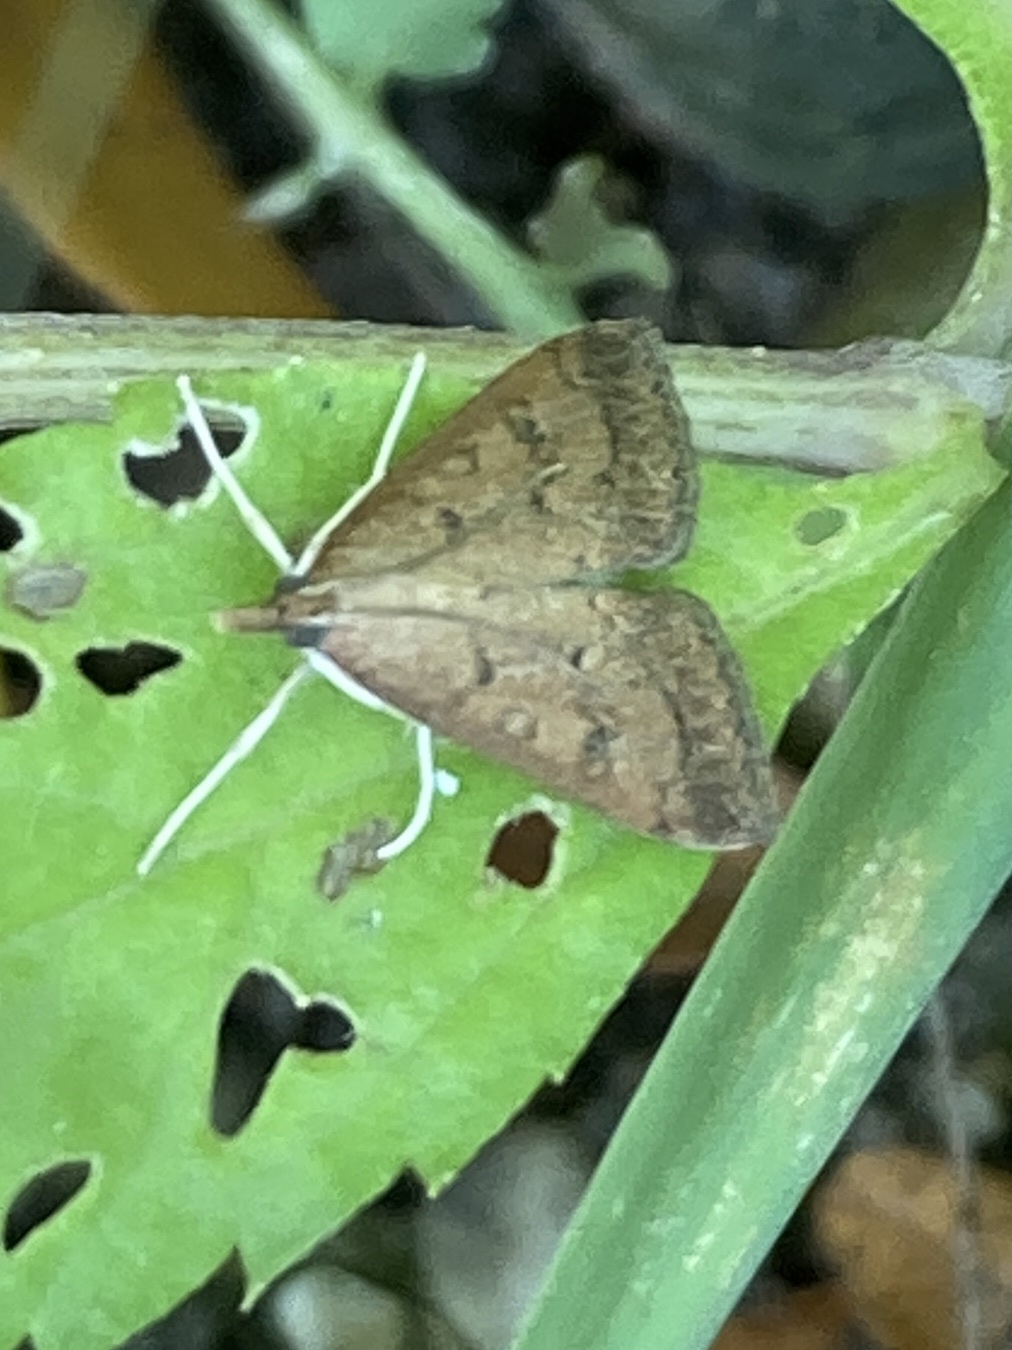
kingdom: Animalia
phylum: Arthropoda
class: Insecta
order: Lepidoptera
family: Crambidae
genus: Udea
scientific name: Udea rubigalis
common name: Celery leaftier moth
